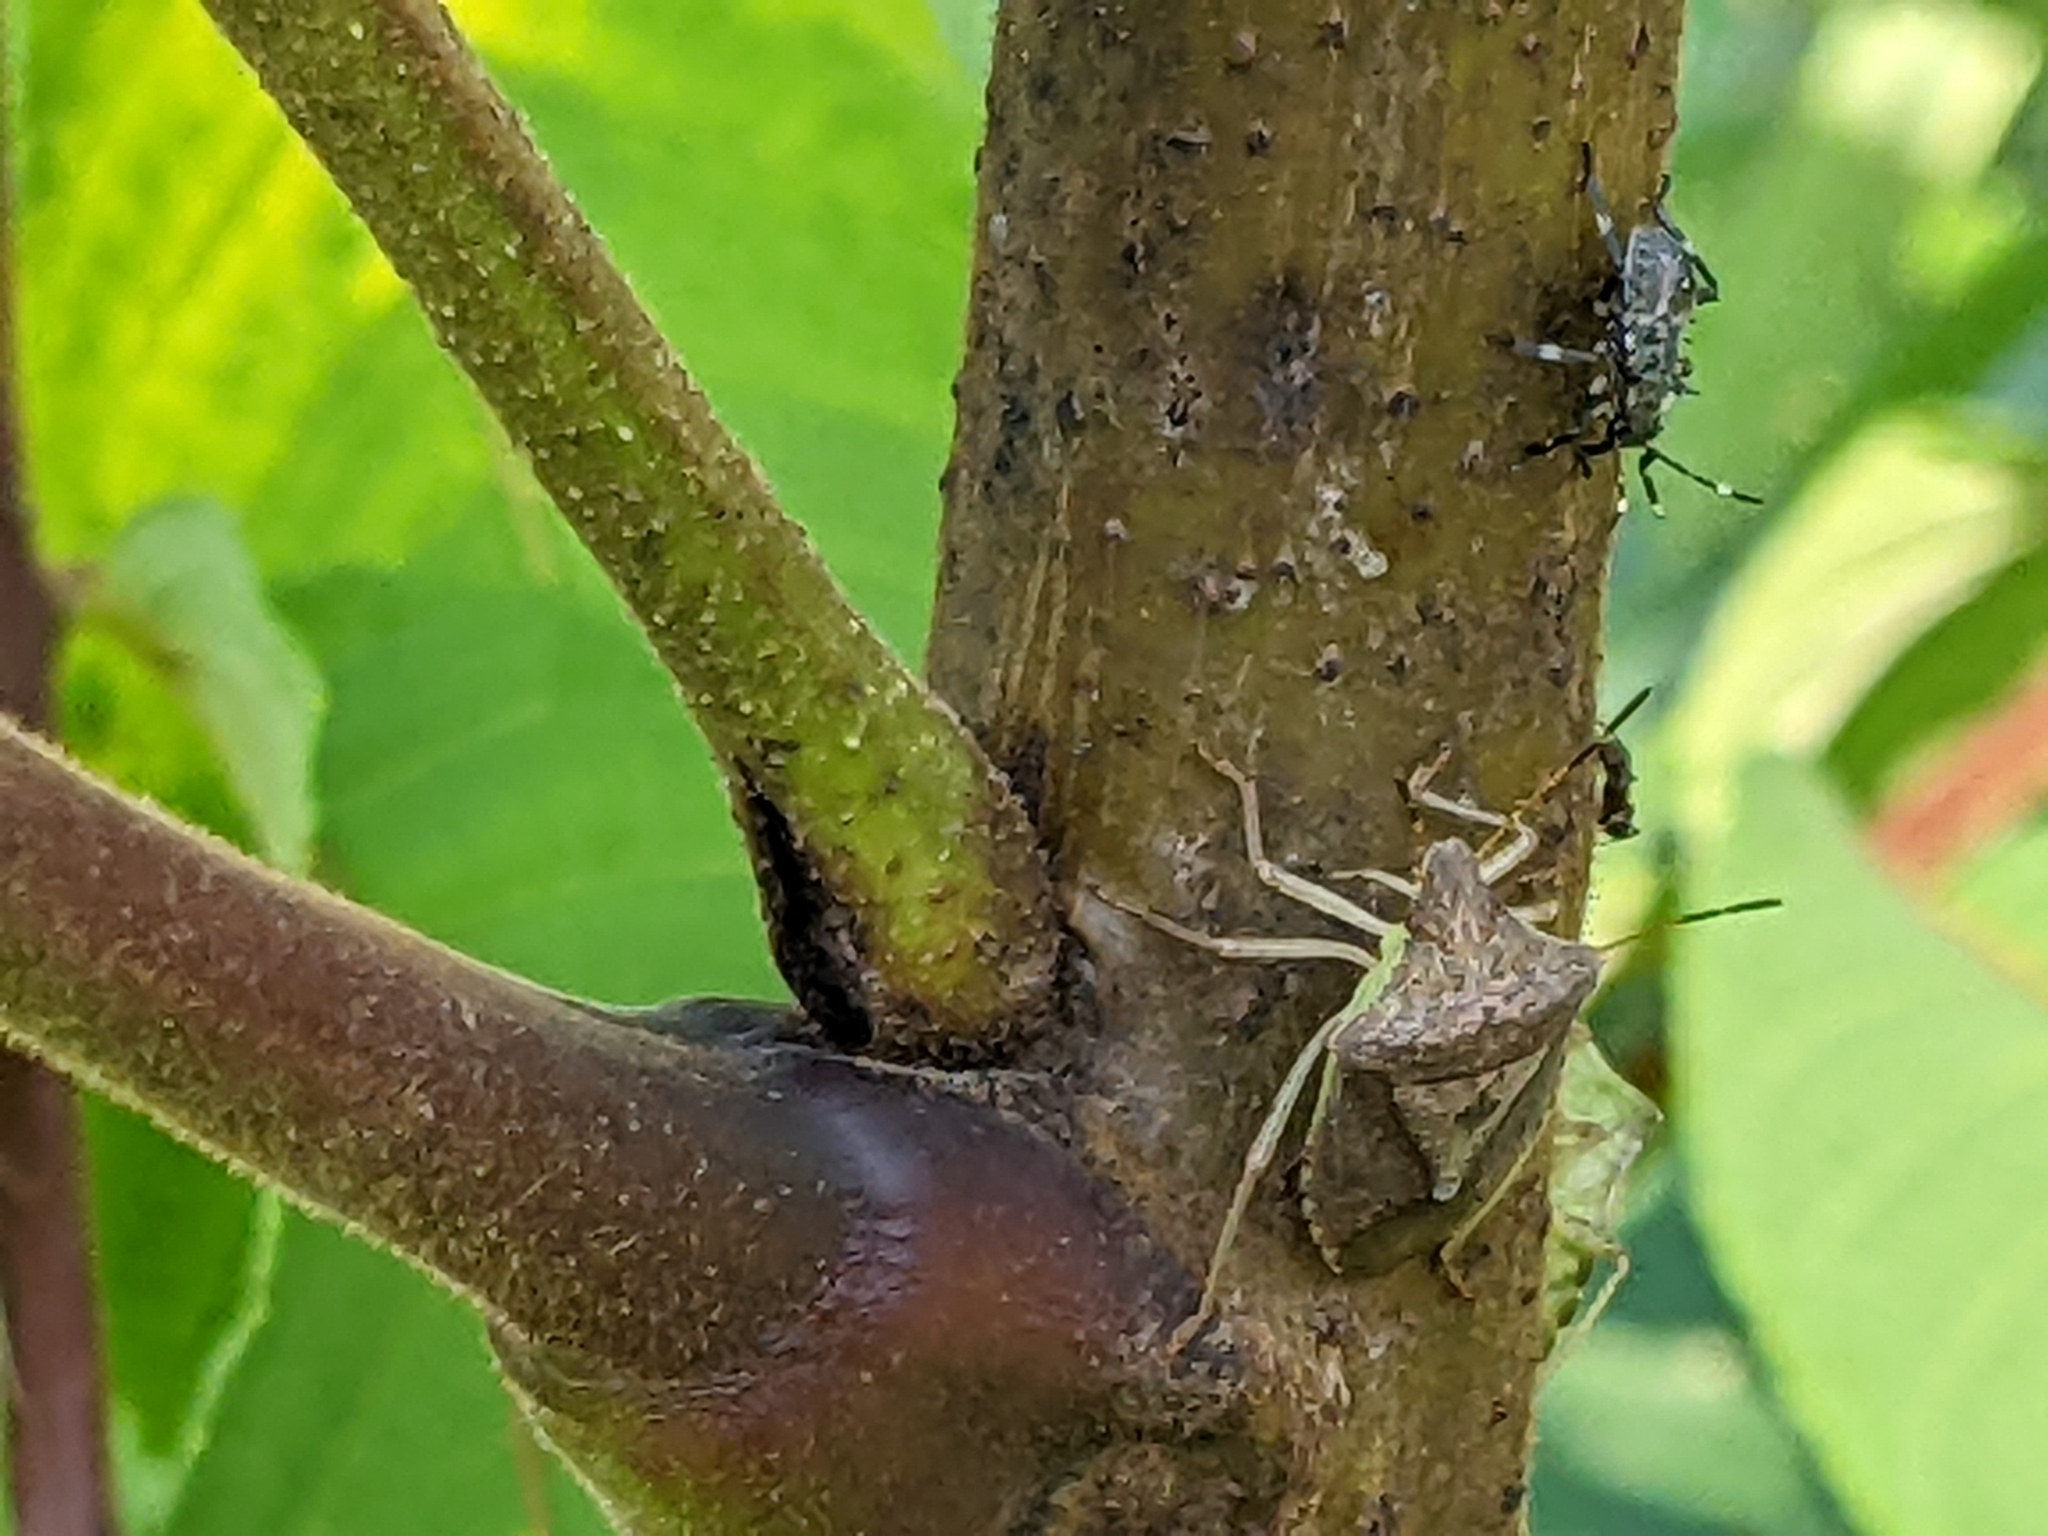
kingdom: Animalia
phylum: Arthropoda
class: Insecta
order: Hemiptera
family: Pentatomidae
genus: Halyomorpha
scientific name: Halyomorpha halys
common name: Brown marmorated stink bug
